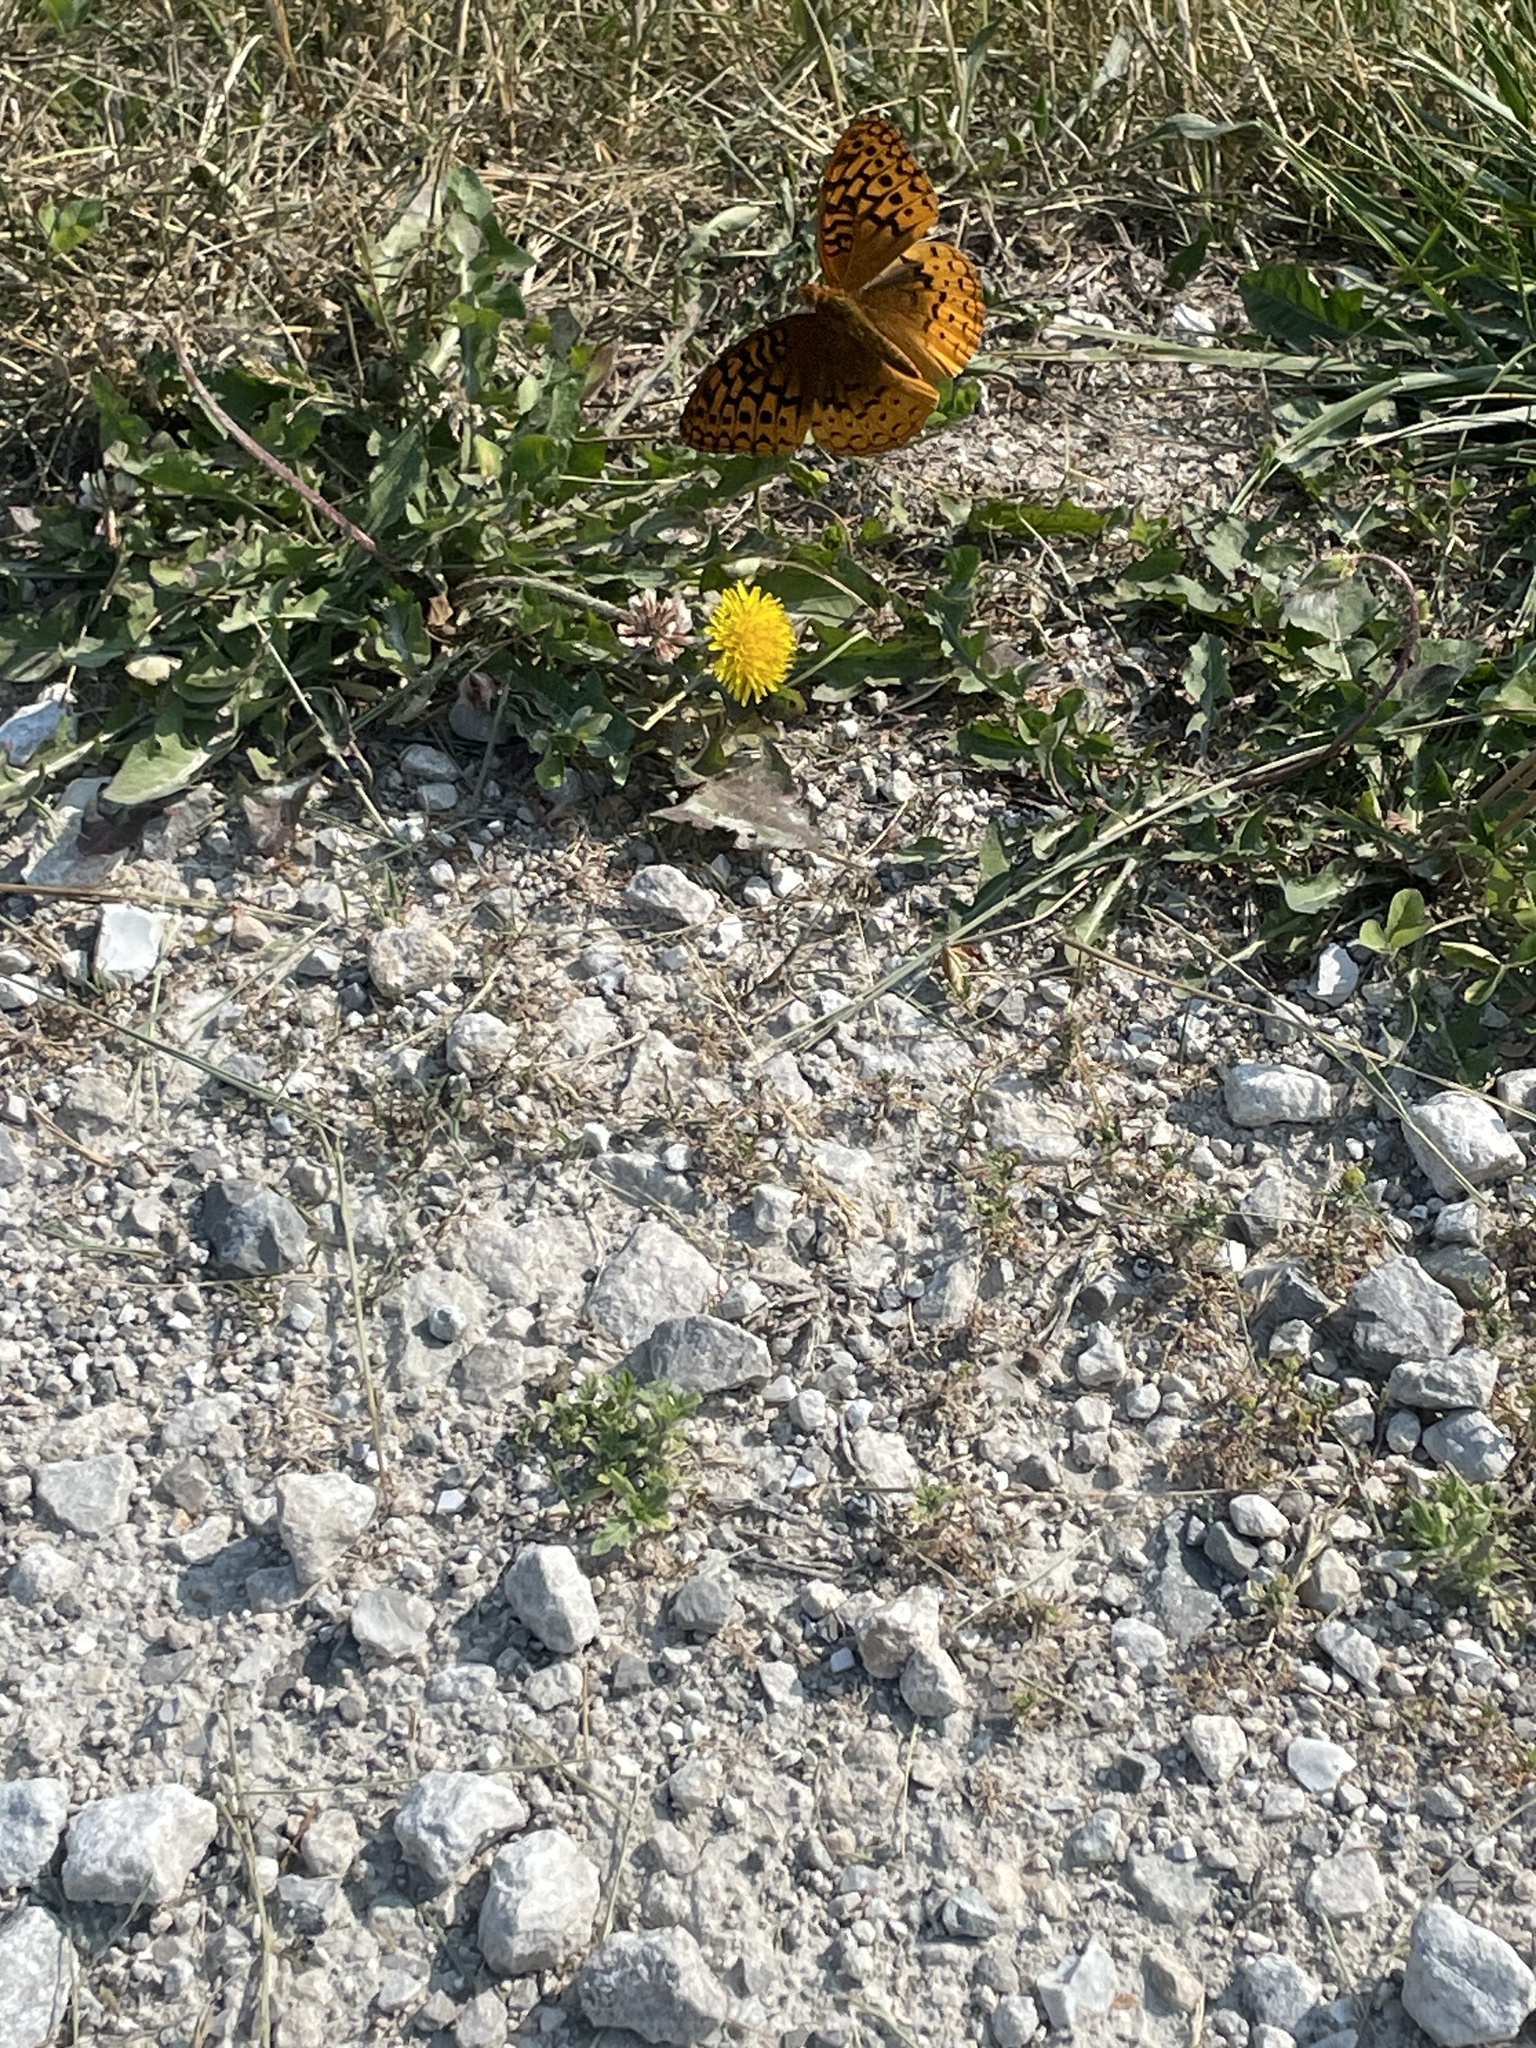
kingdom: Animalia
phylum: Arthropoda
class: Insecta
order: Lepidoptera
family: Nymphalidae
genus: Speyeria
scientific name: Speyeria cybele
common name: Great spangled fritillary
